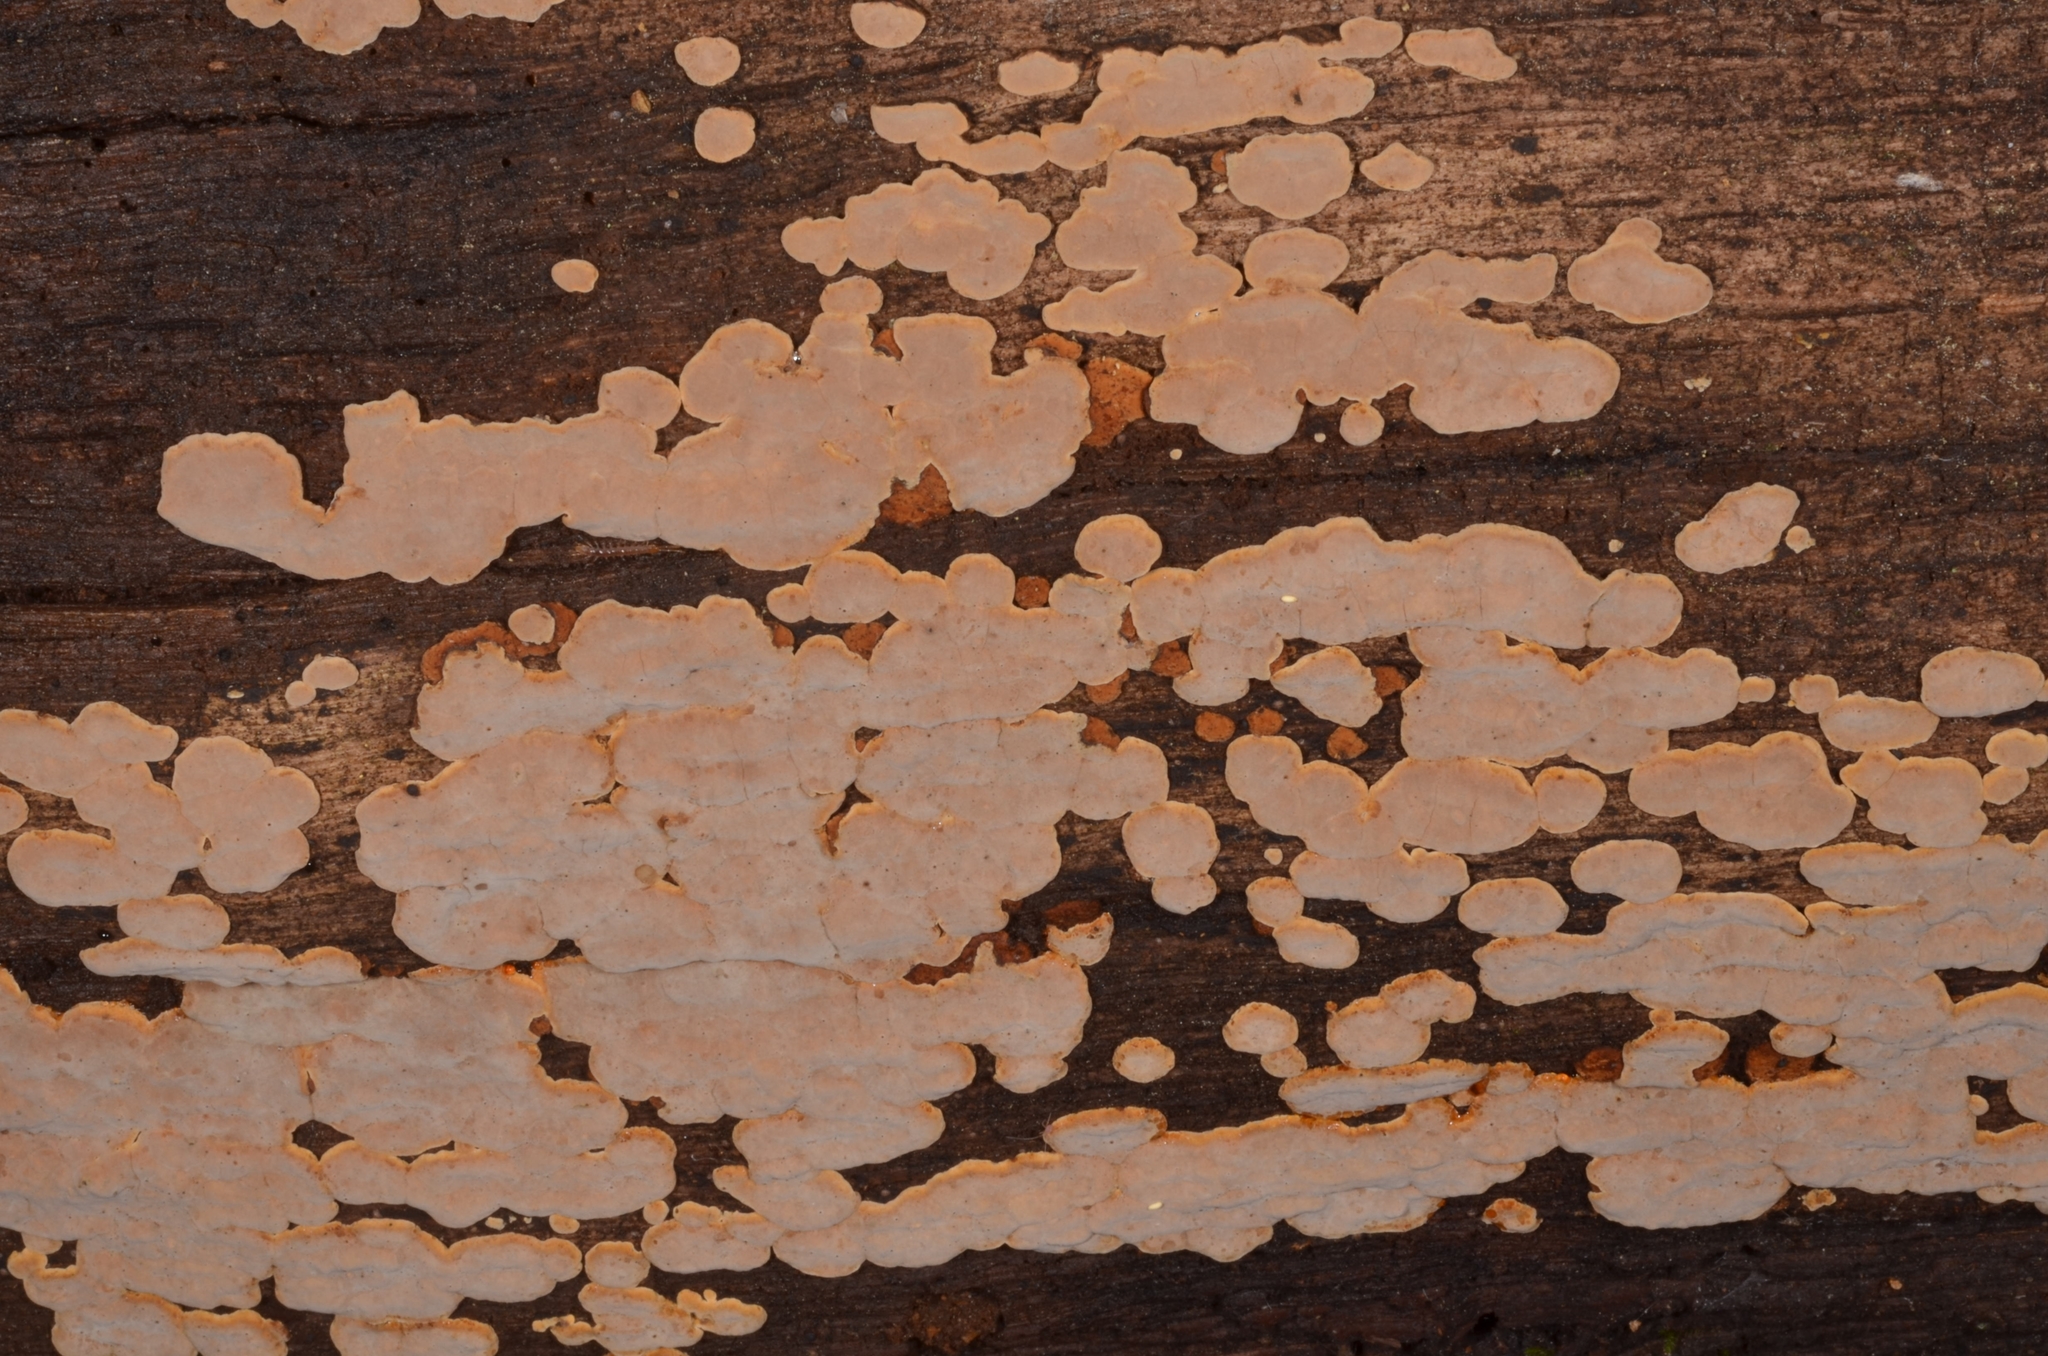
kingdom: Fungi
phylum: Basidiomycota
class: Agaricomycetes
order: Russulales
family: Stereaceae
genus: Xylobolus
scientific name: Xylobolus frustulatus
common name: Ceramic parchment
